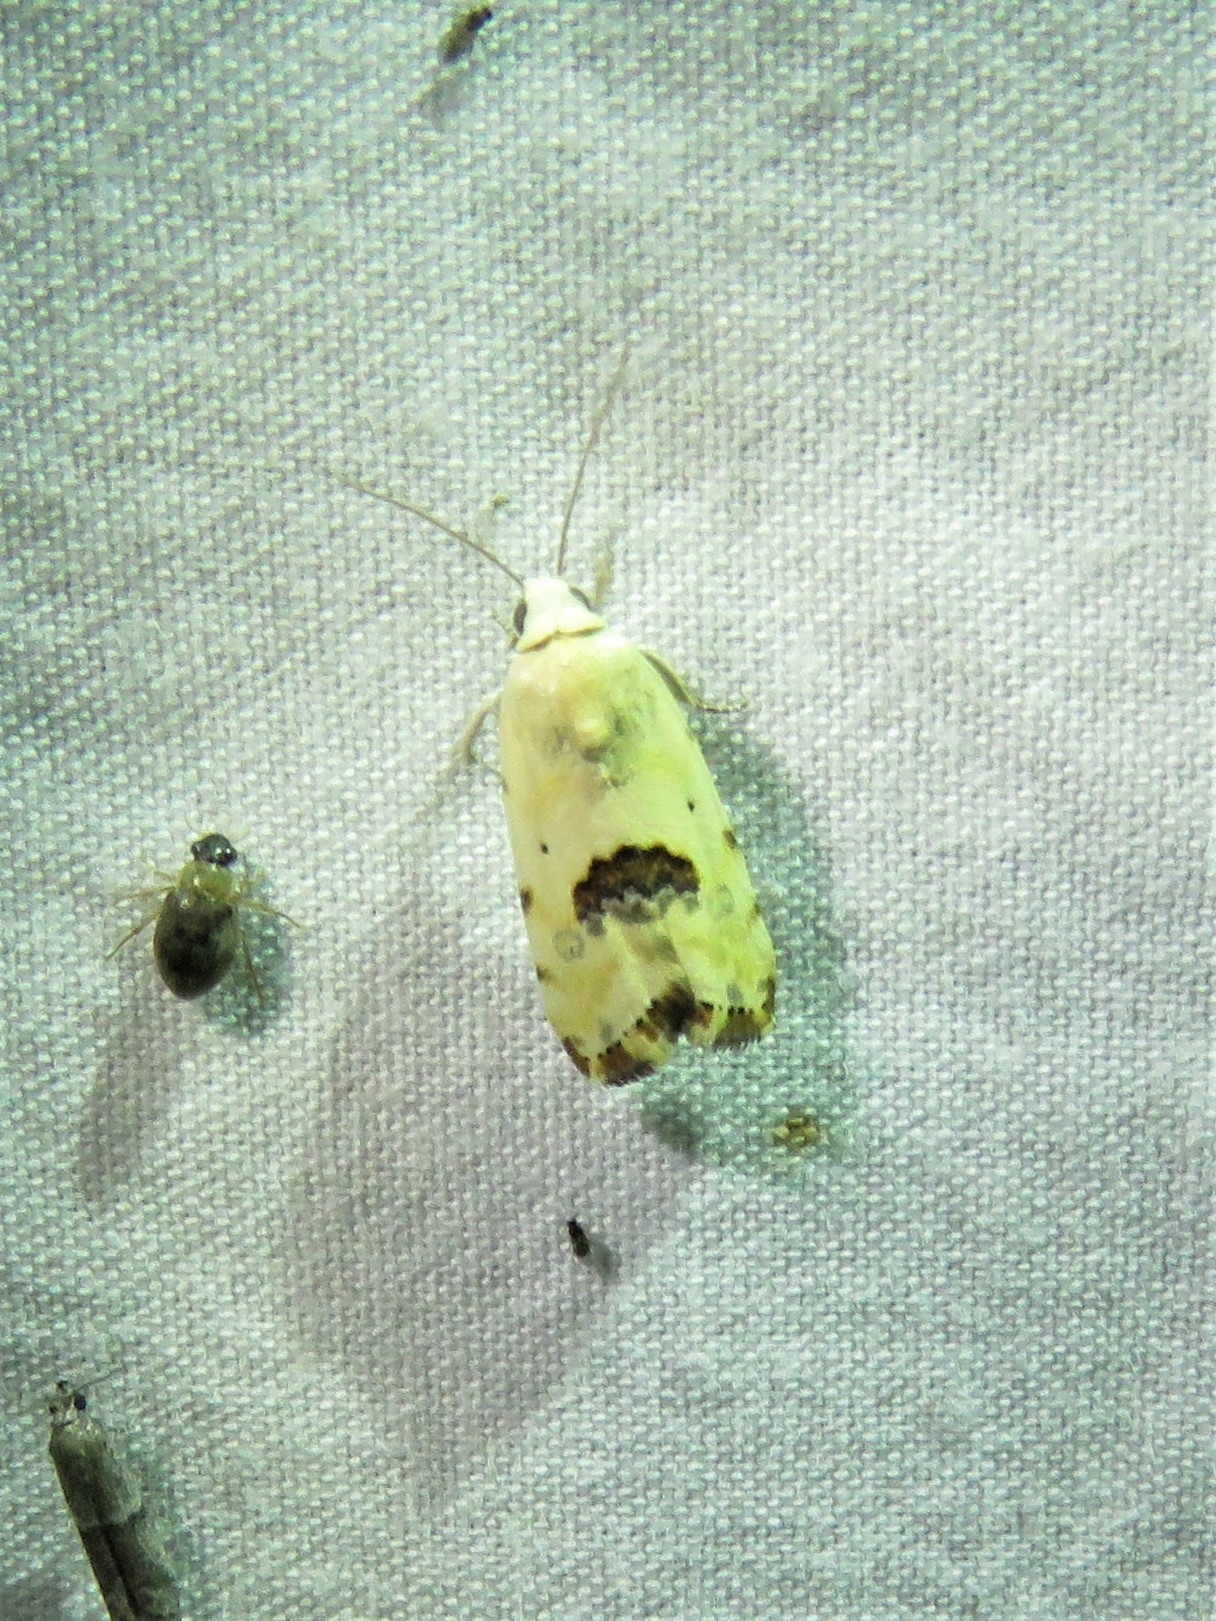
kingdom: Animalia
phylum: Arthropoda
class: Insecta
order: Lepidoptera
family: Noctuidae
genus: Acontia
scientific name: Acontia libedis
